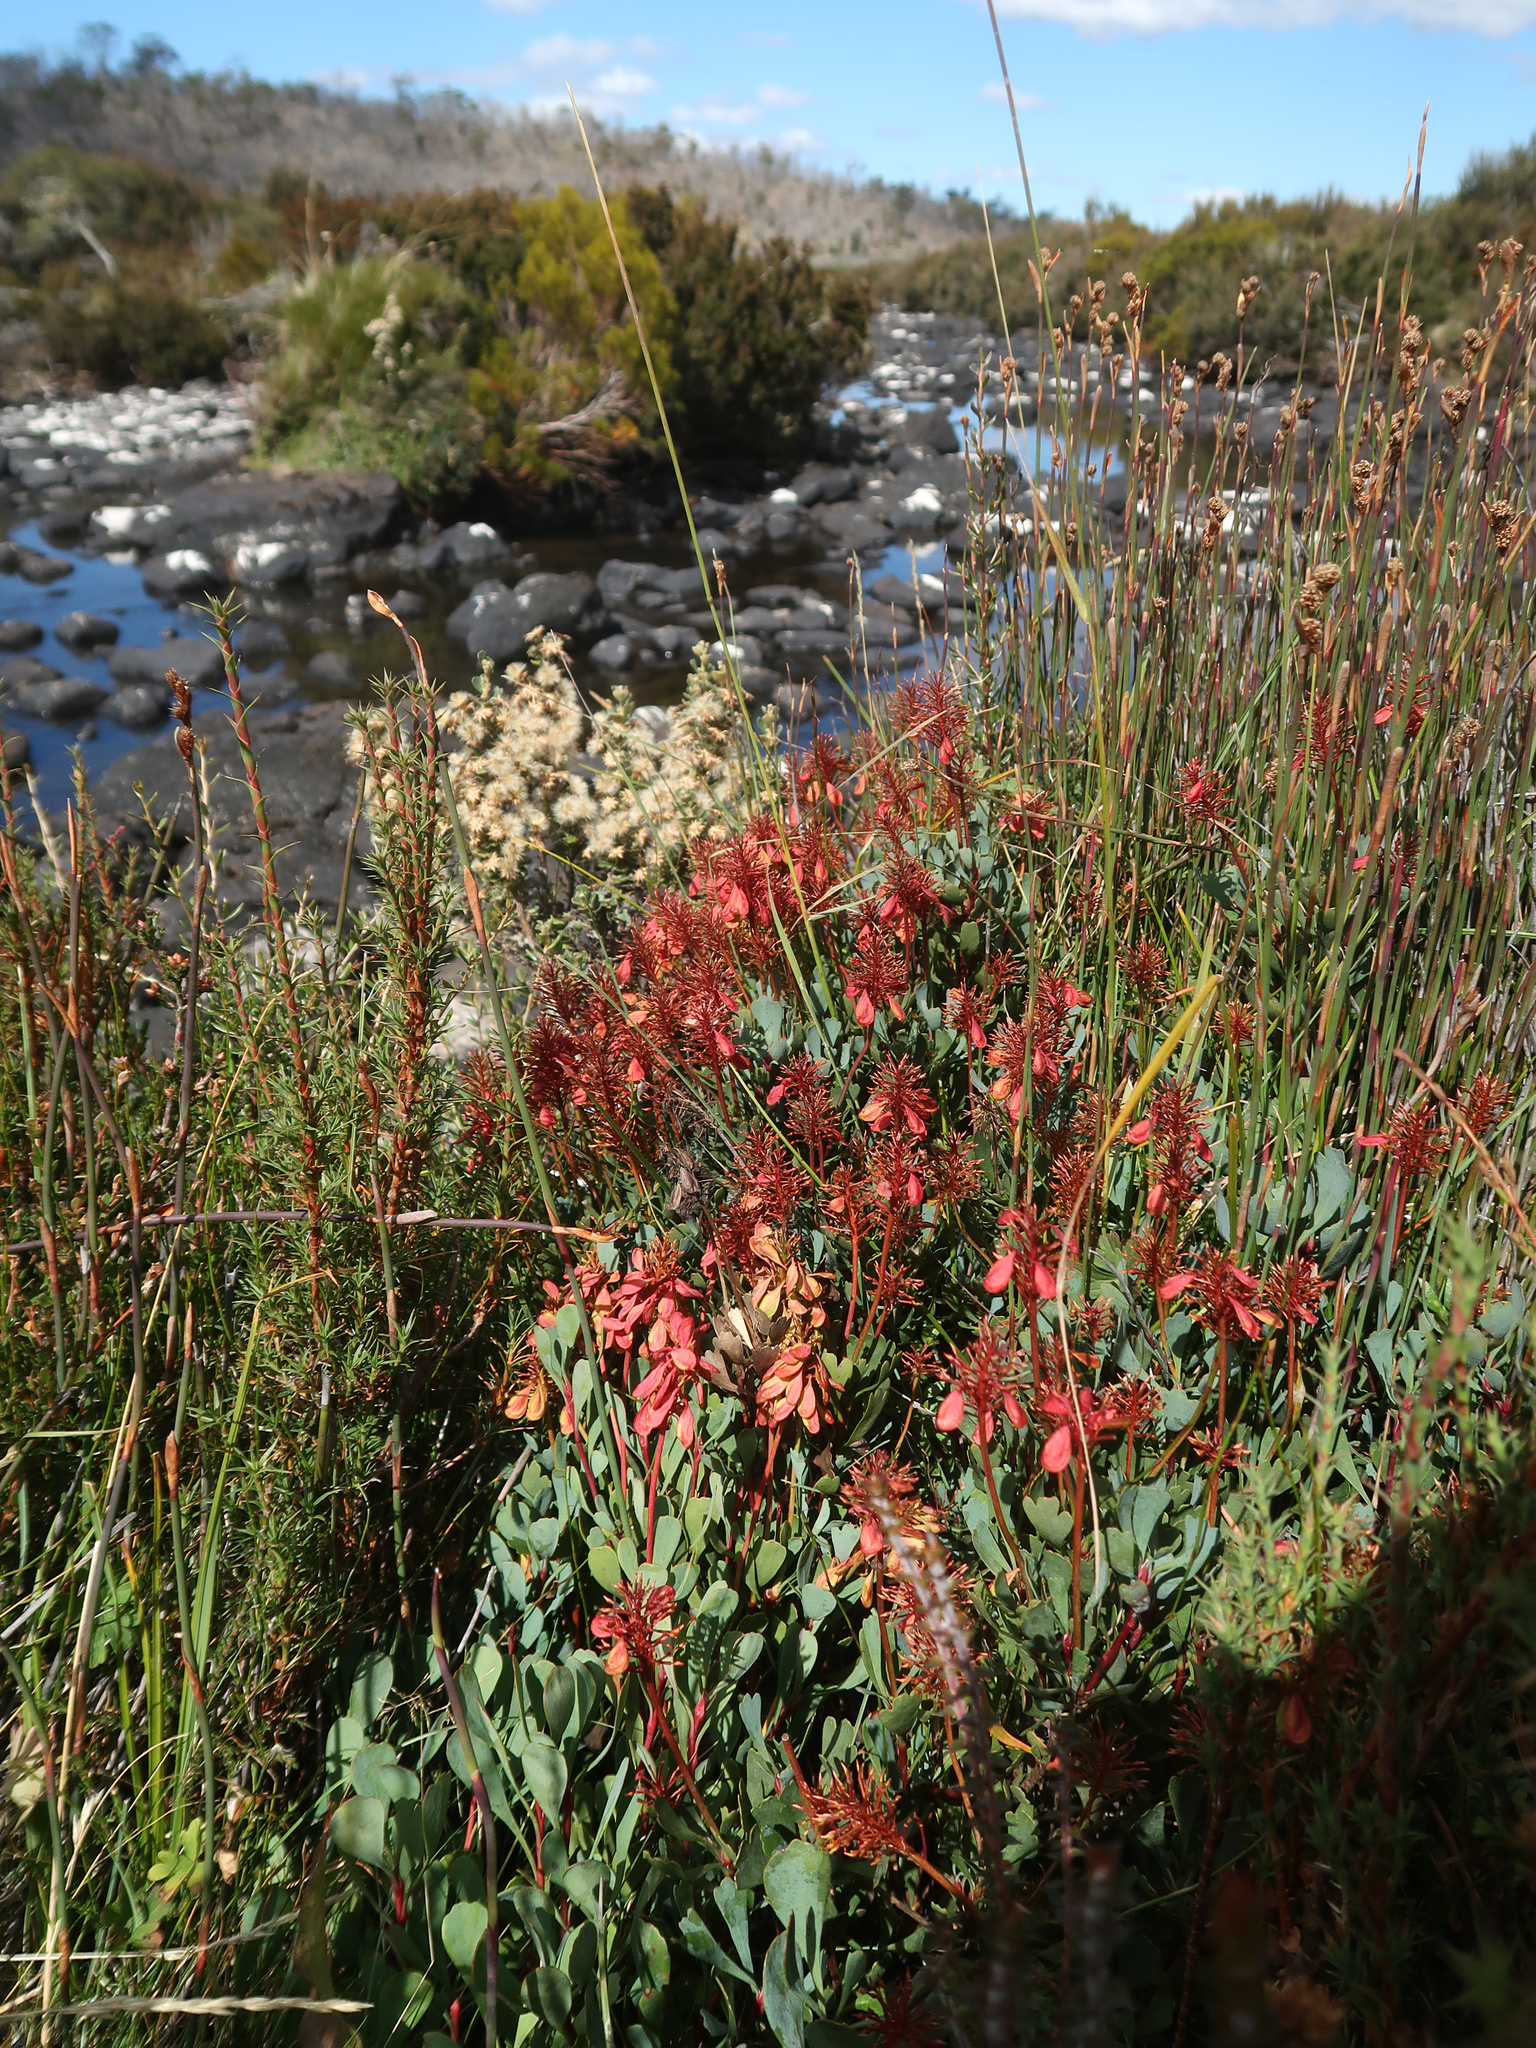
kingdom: Plantae
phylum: Tracheophyta
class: Magnoliopsida
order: Proteales
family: Proteaceae
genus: Bellendena
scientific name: Bellendena montana
